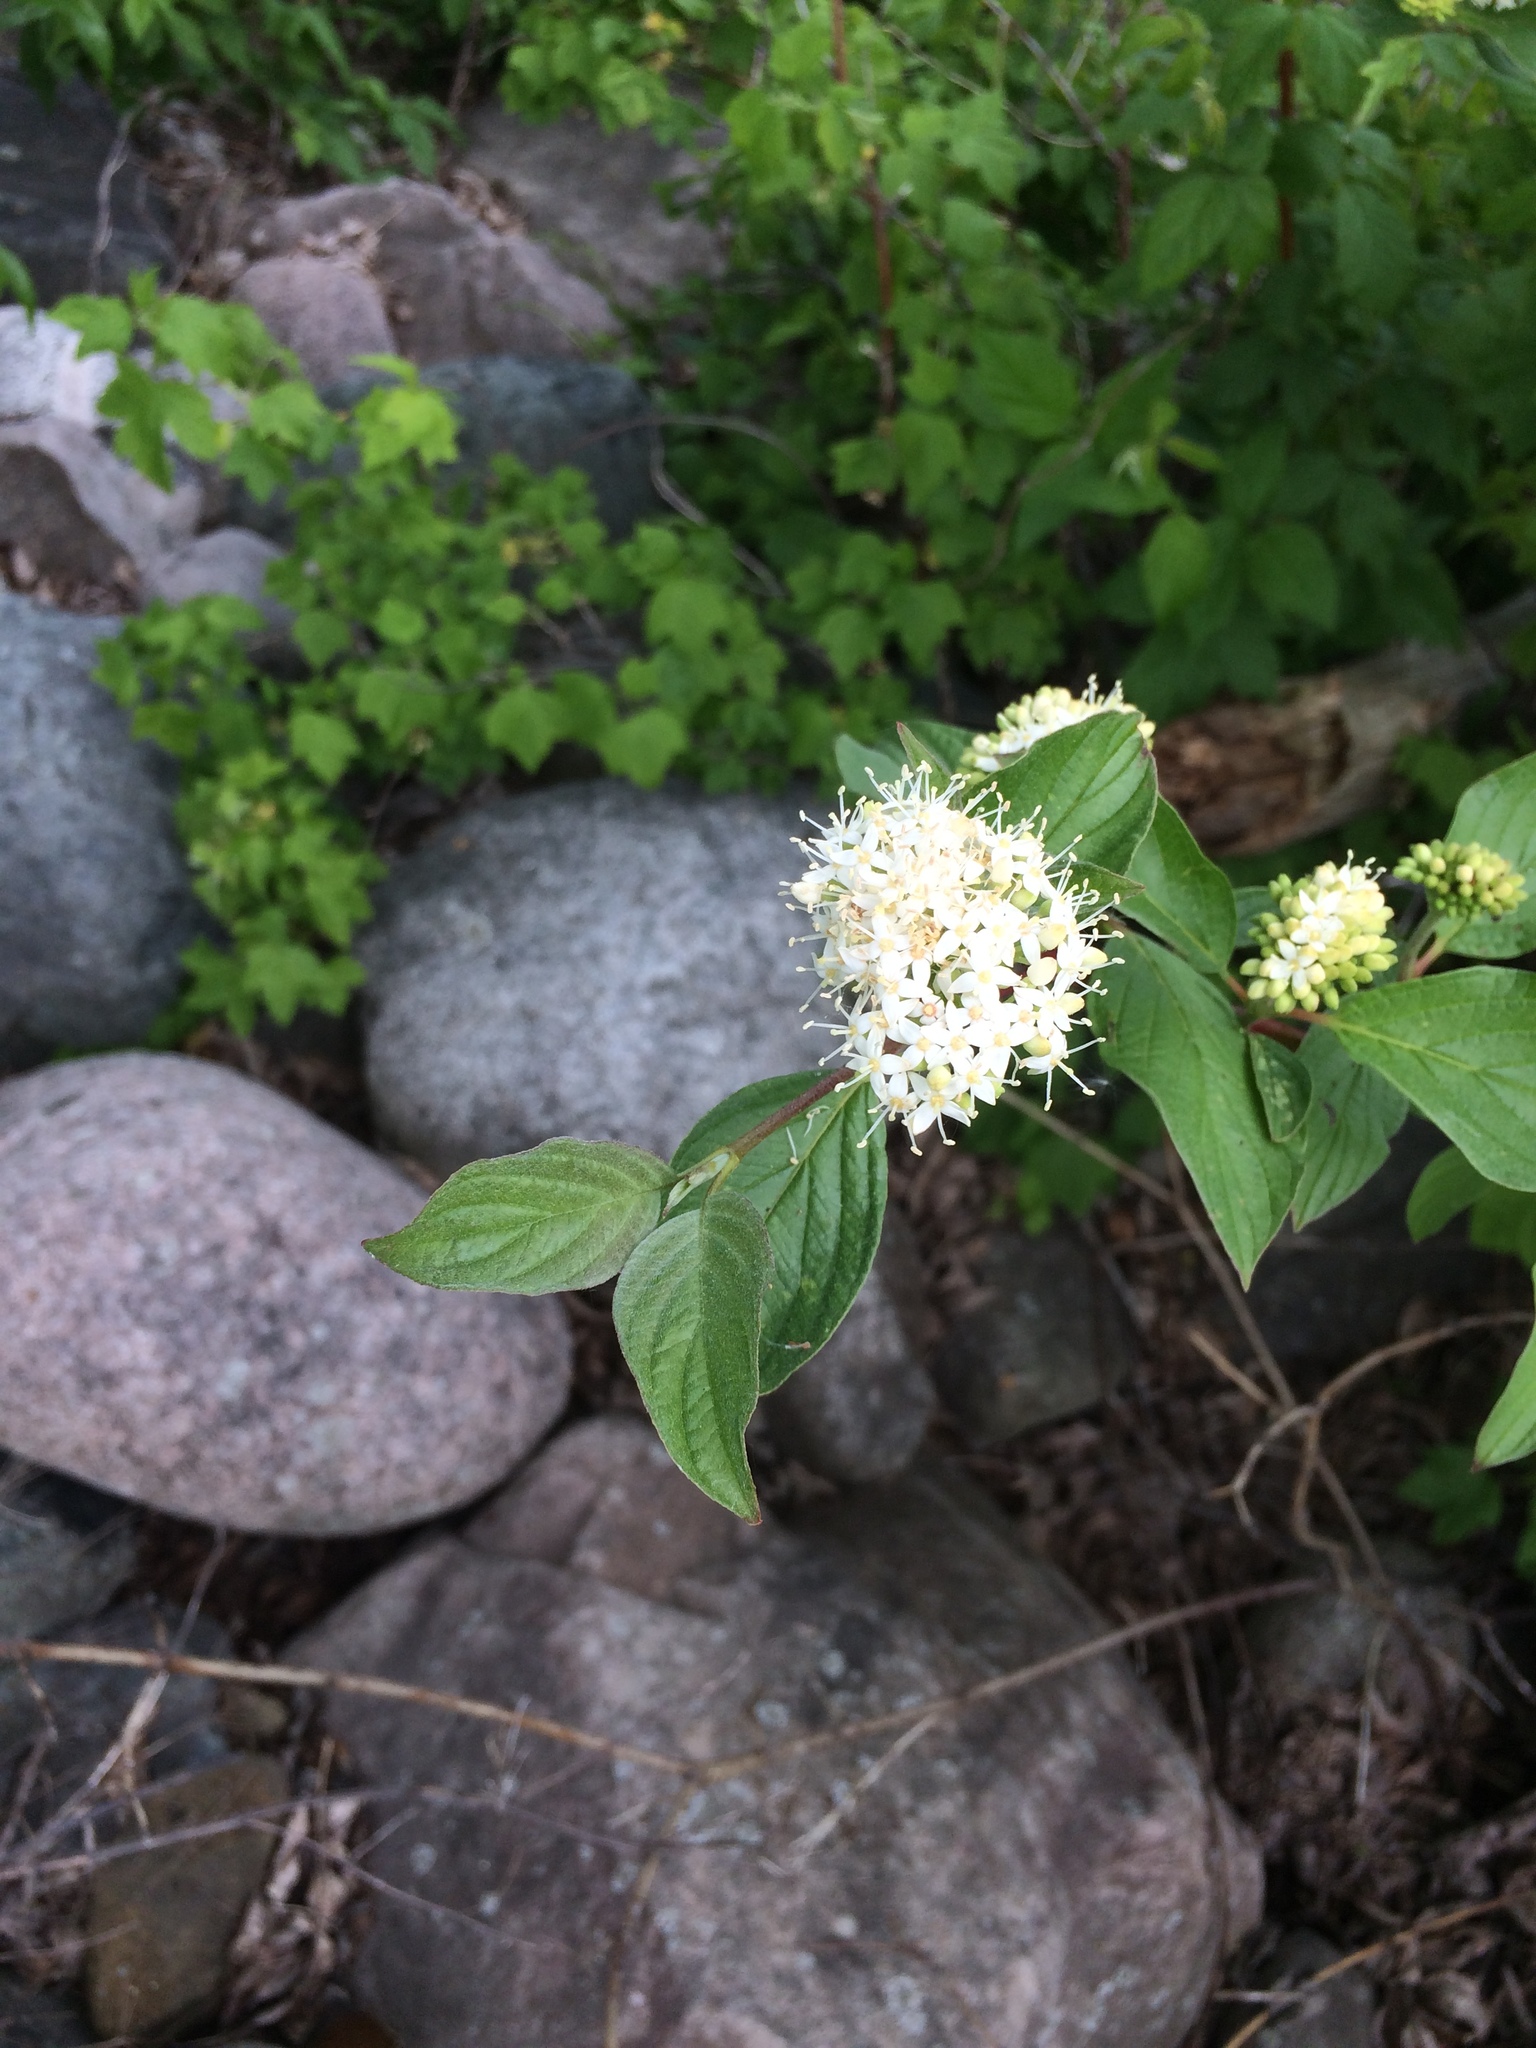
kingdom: Plantae
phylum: Tracheophyta
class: Magnoliopsida
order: Cornales
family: Cornaceae
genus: Cornus
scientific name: Cornus sericea
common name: Red-osier dogwood
